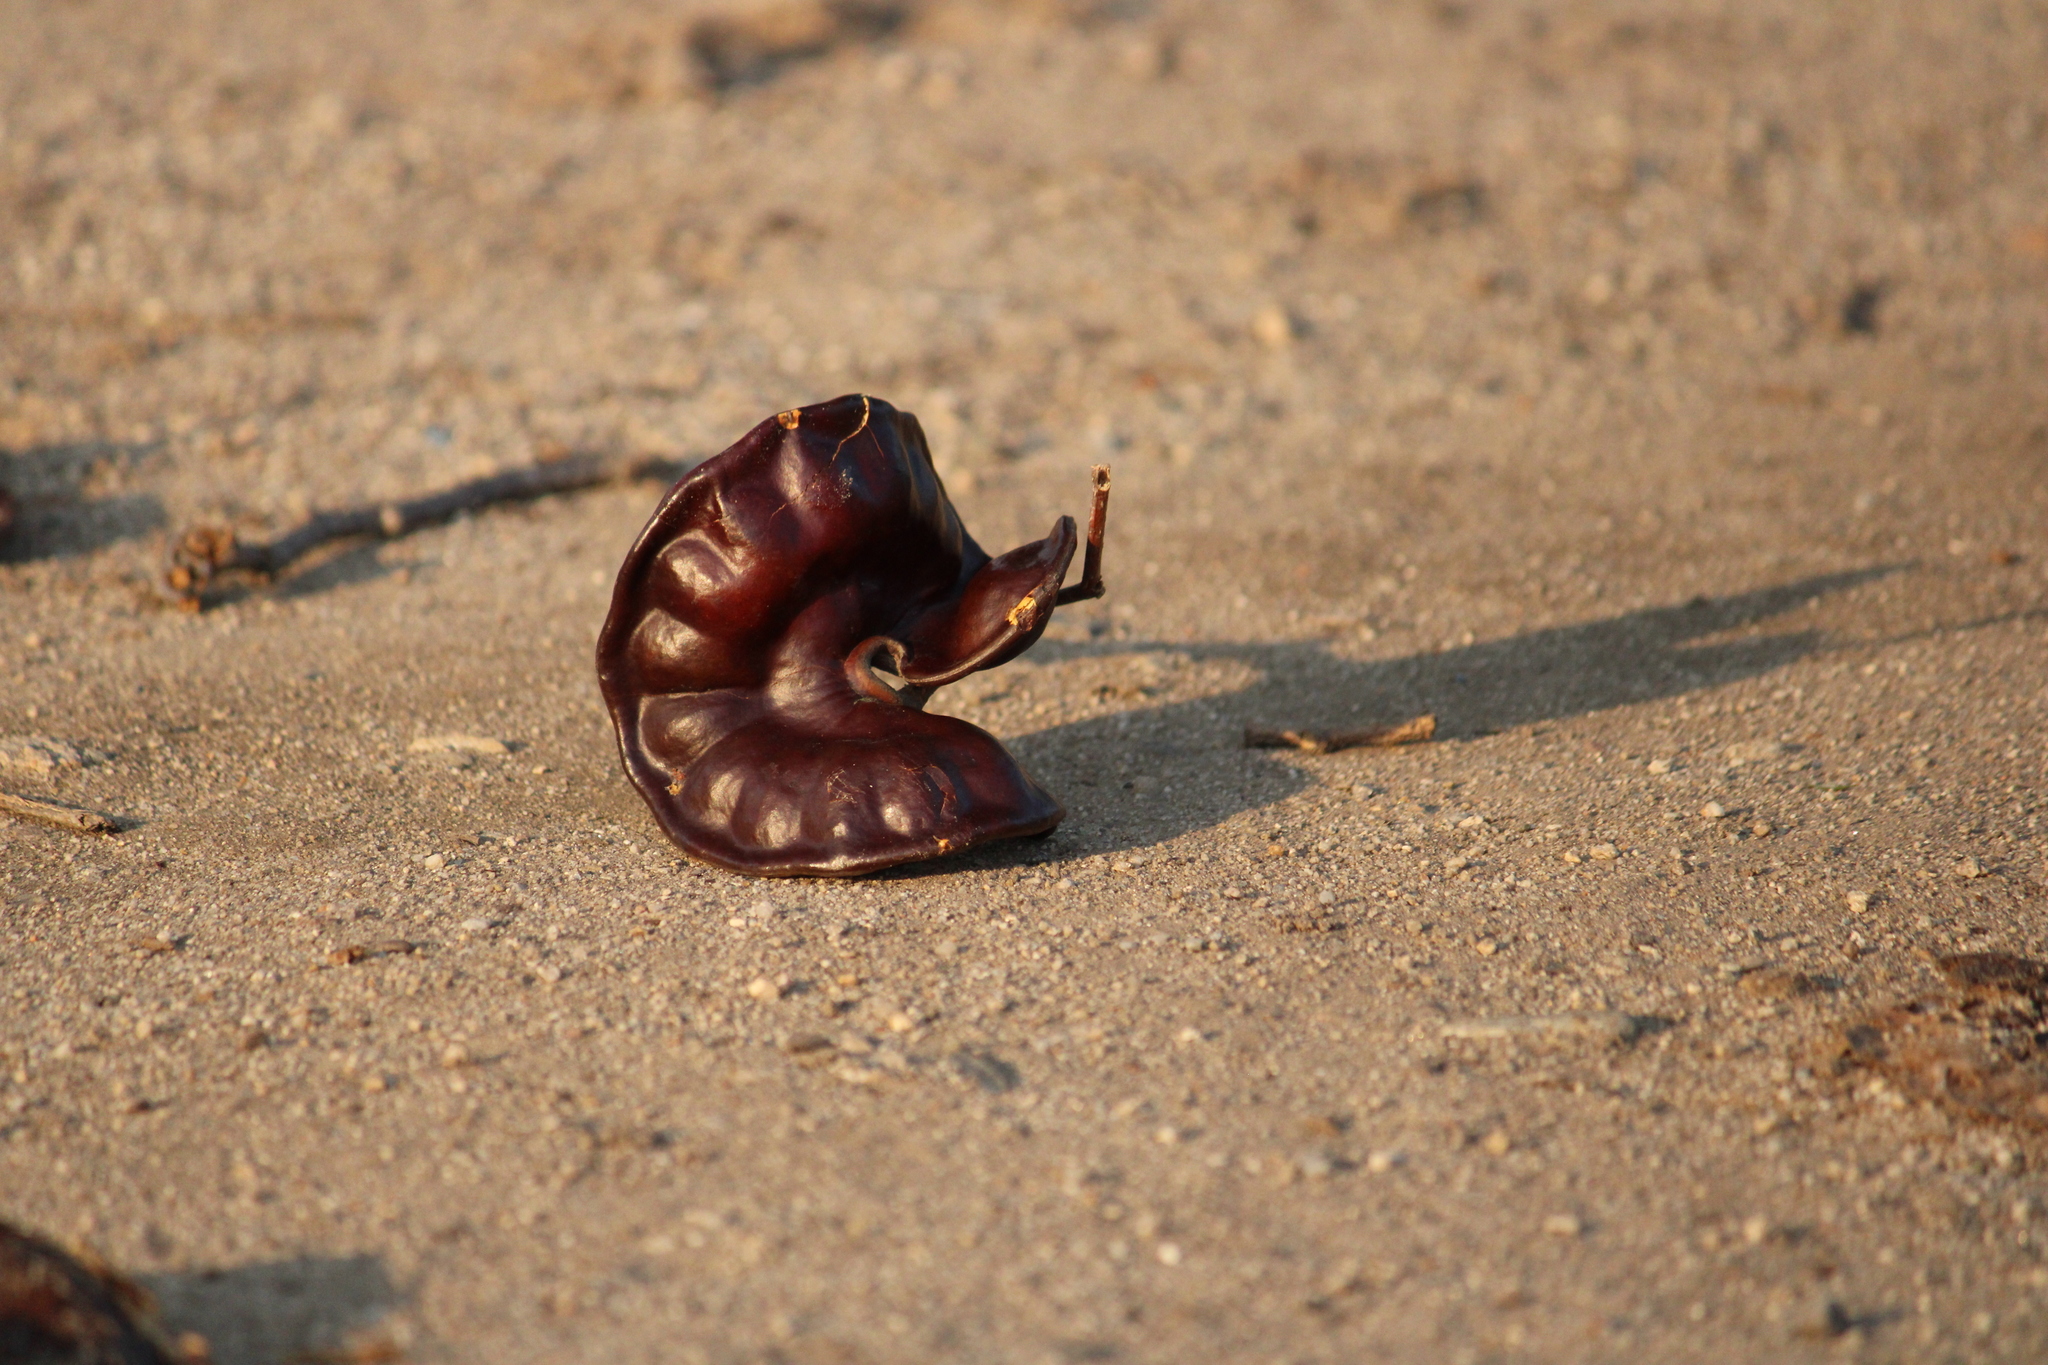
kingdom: Plantae
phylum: Tracheophyta
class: Magnoliopsida
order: Fabales
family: Fabaceae
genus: Enterolobium
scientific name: Enterolobium cyclocarpum
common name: Ear tree
